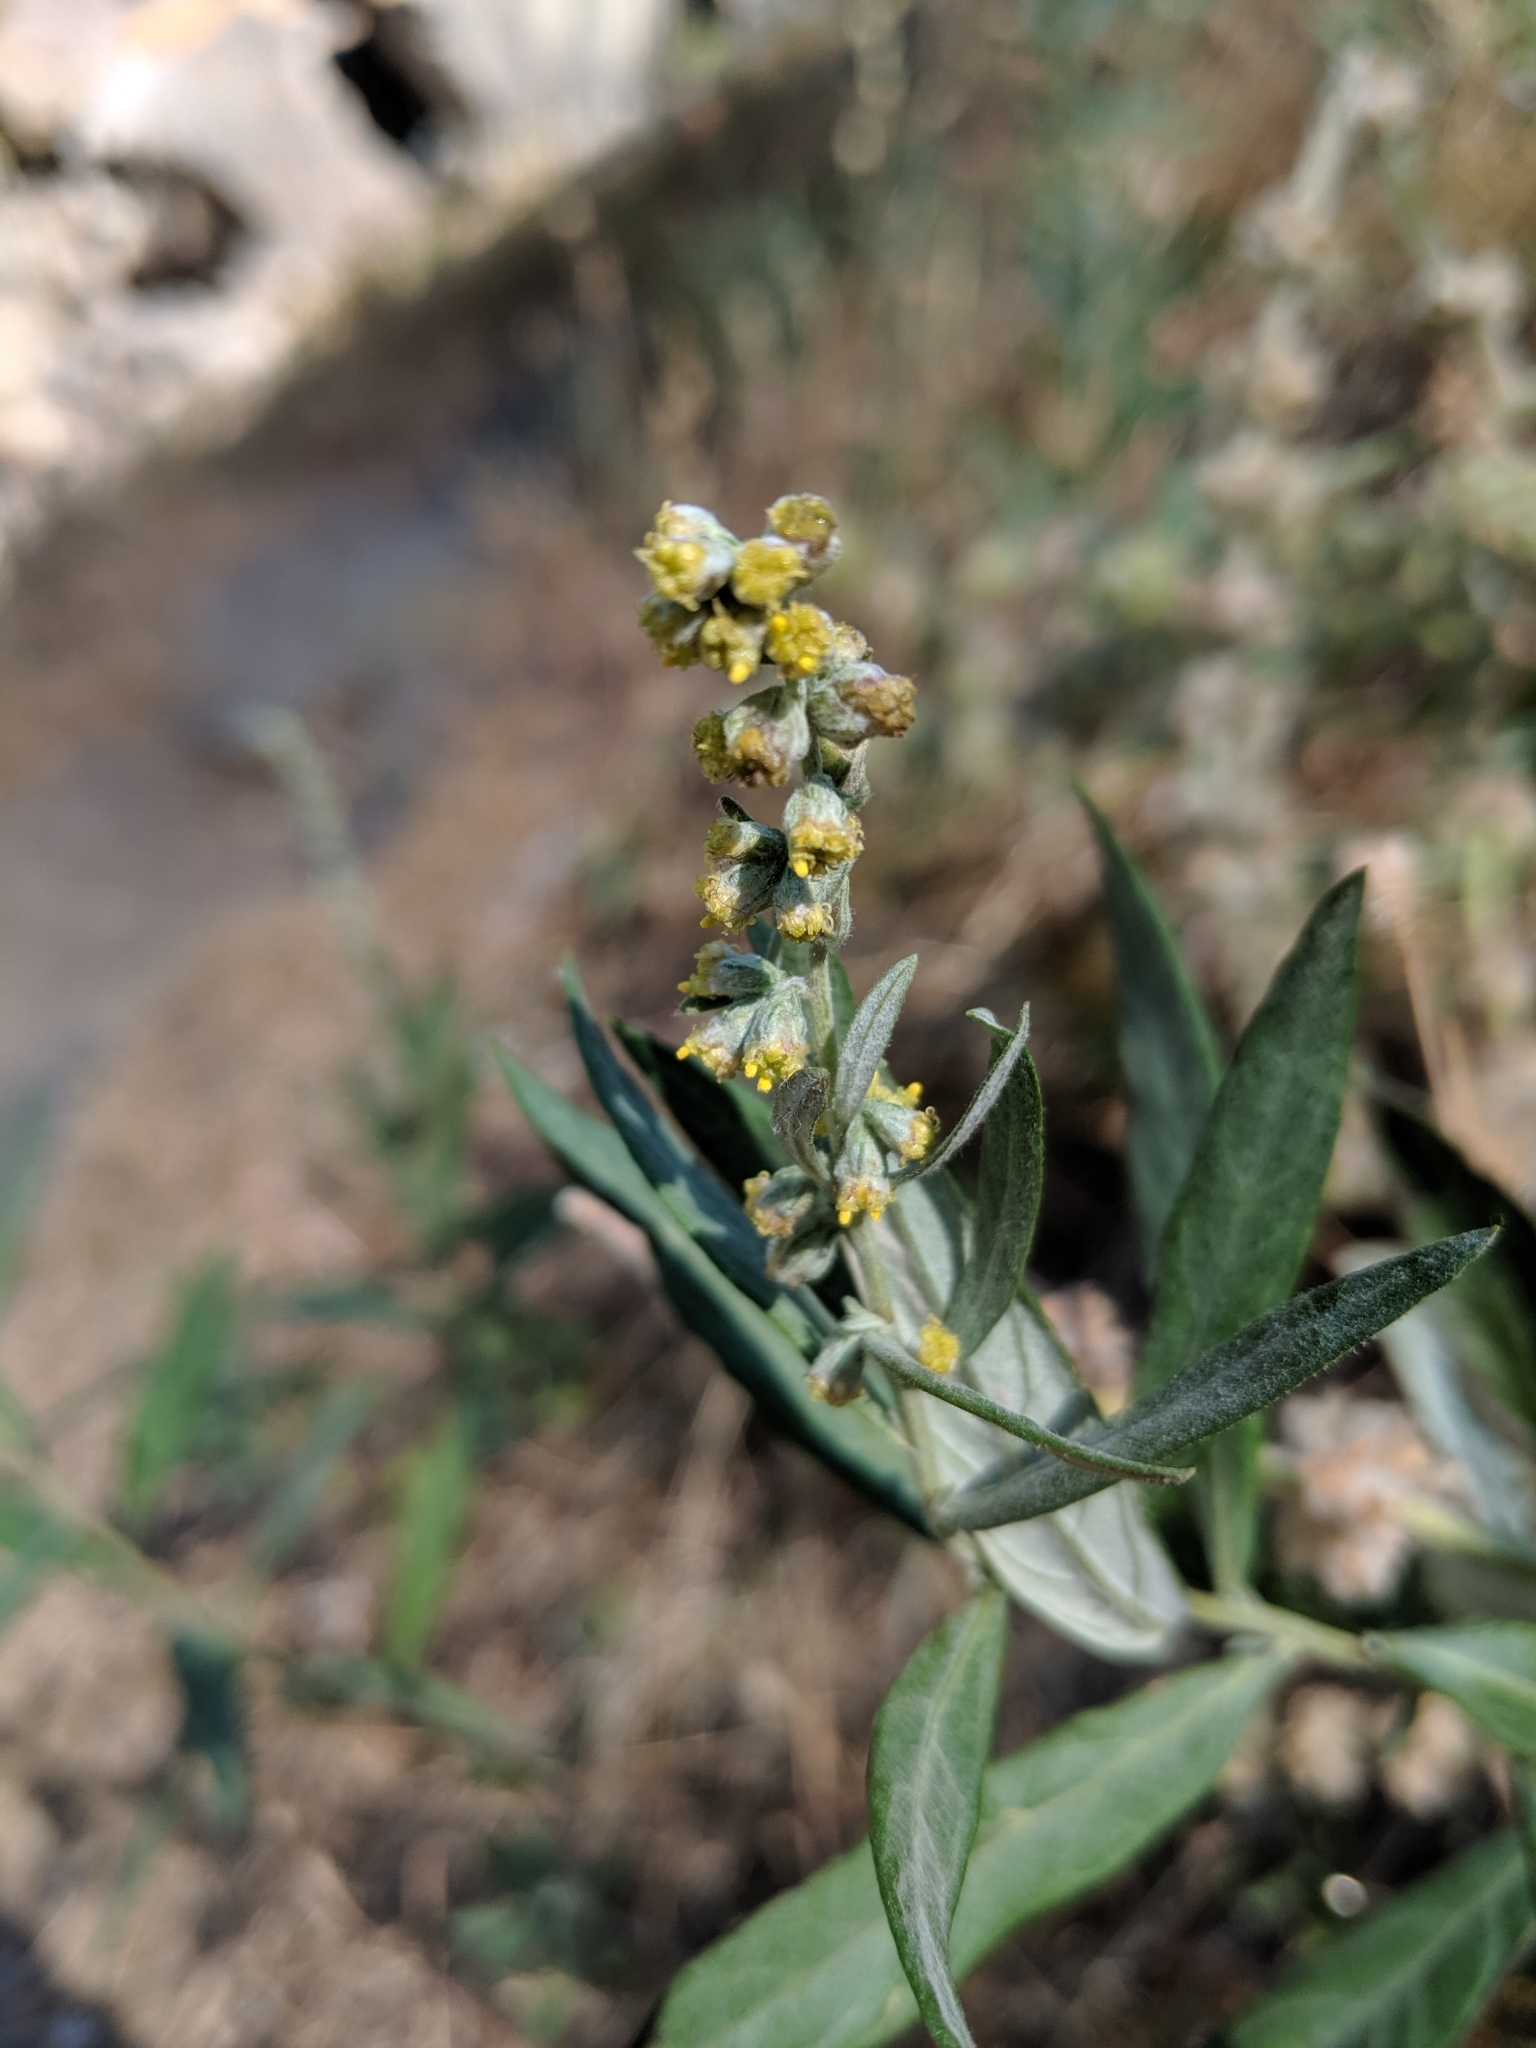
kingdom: Plantae
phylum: Tracheophyta
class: Magnoliopsida
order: Asterales
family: Asteraceae
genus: Artemisia
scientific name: Artemisia douglasiana
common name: Northwest mugwort
